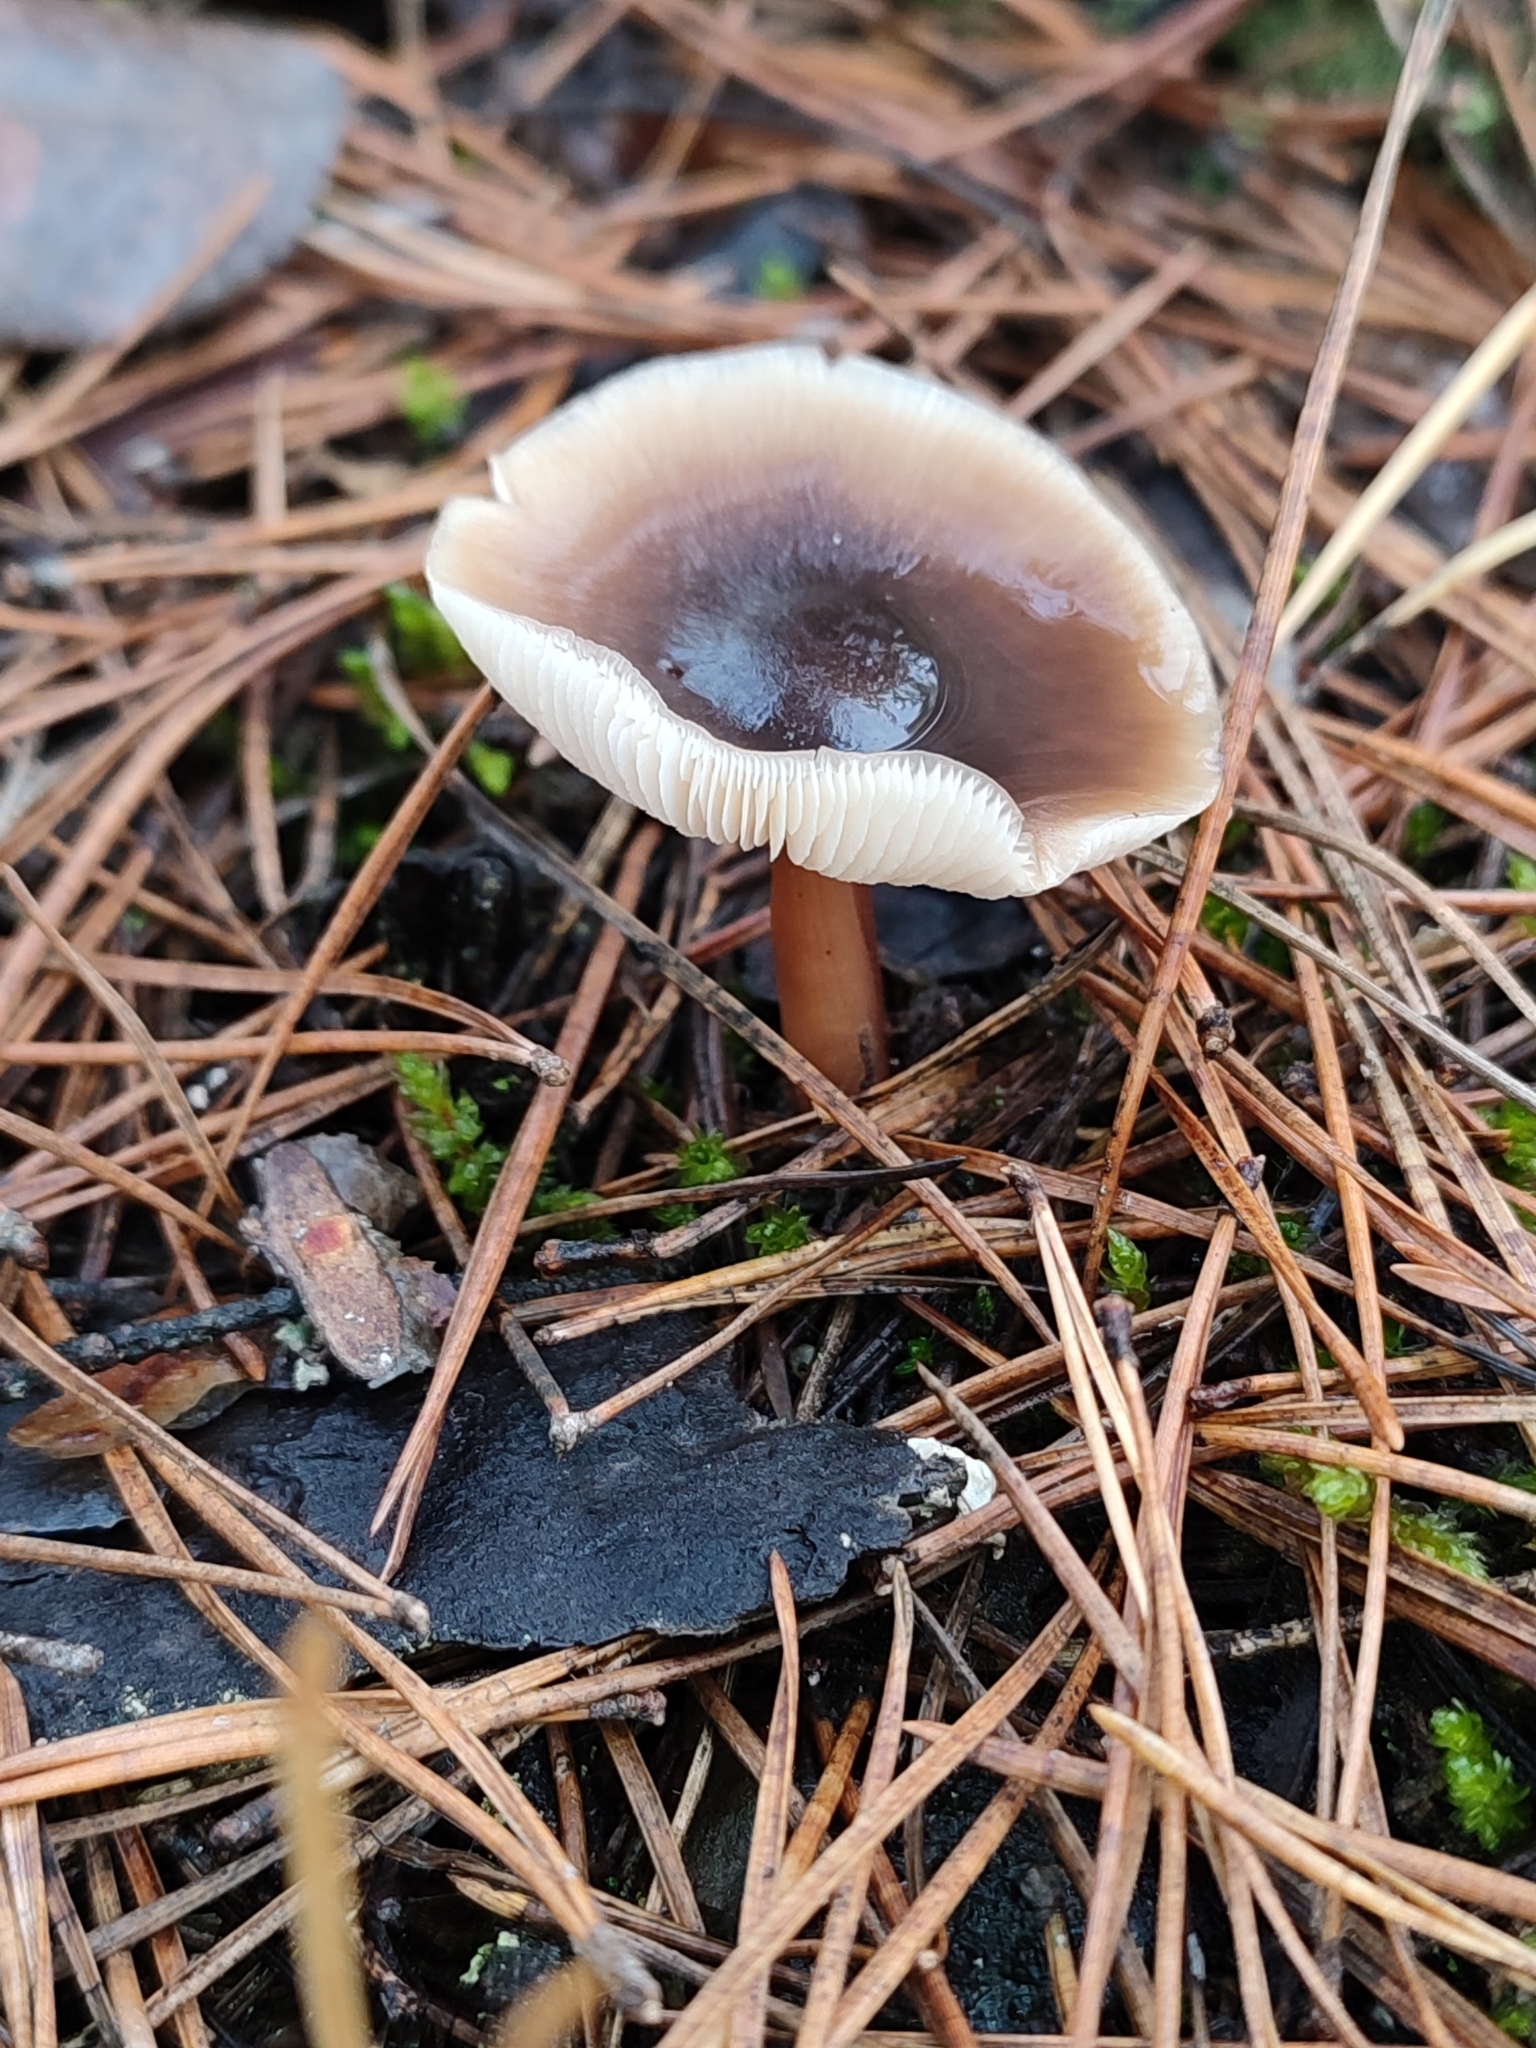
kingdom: Fungi
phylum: Basidiomycota
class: Agaricomycetes
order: Agaricales
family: Omphalotaceae
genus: Rhodocollybia
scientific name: Rhodocollybia butyracea
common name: Butter cap
